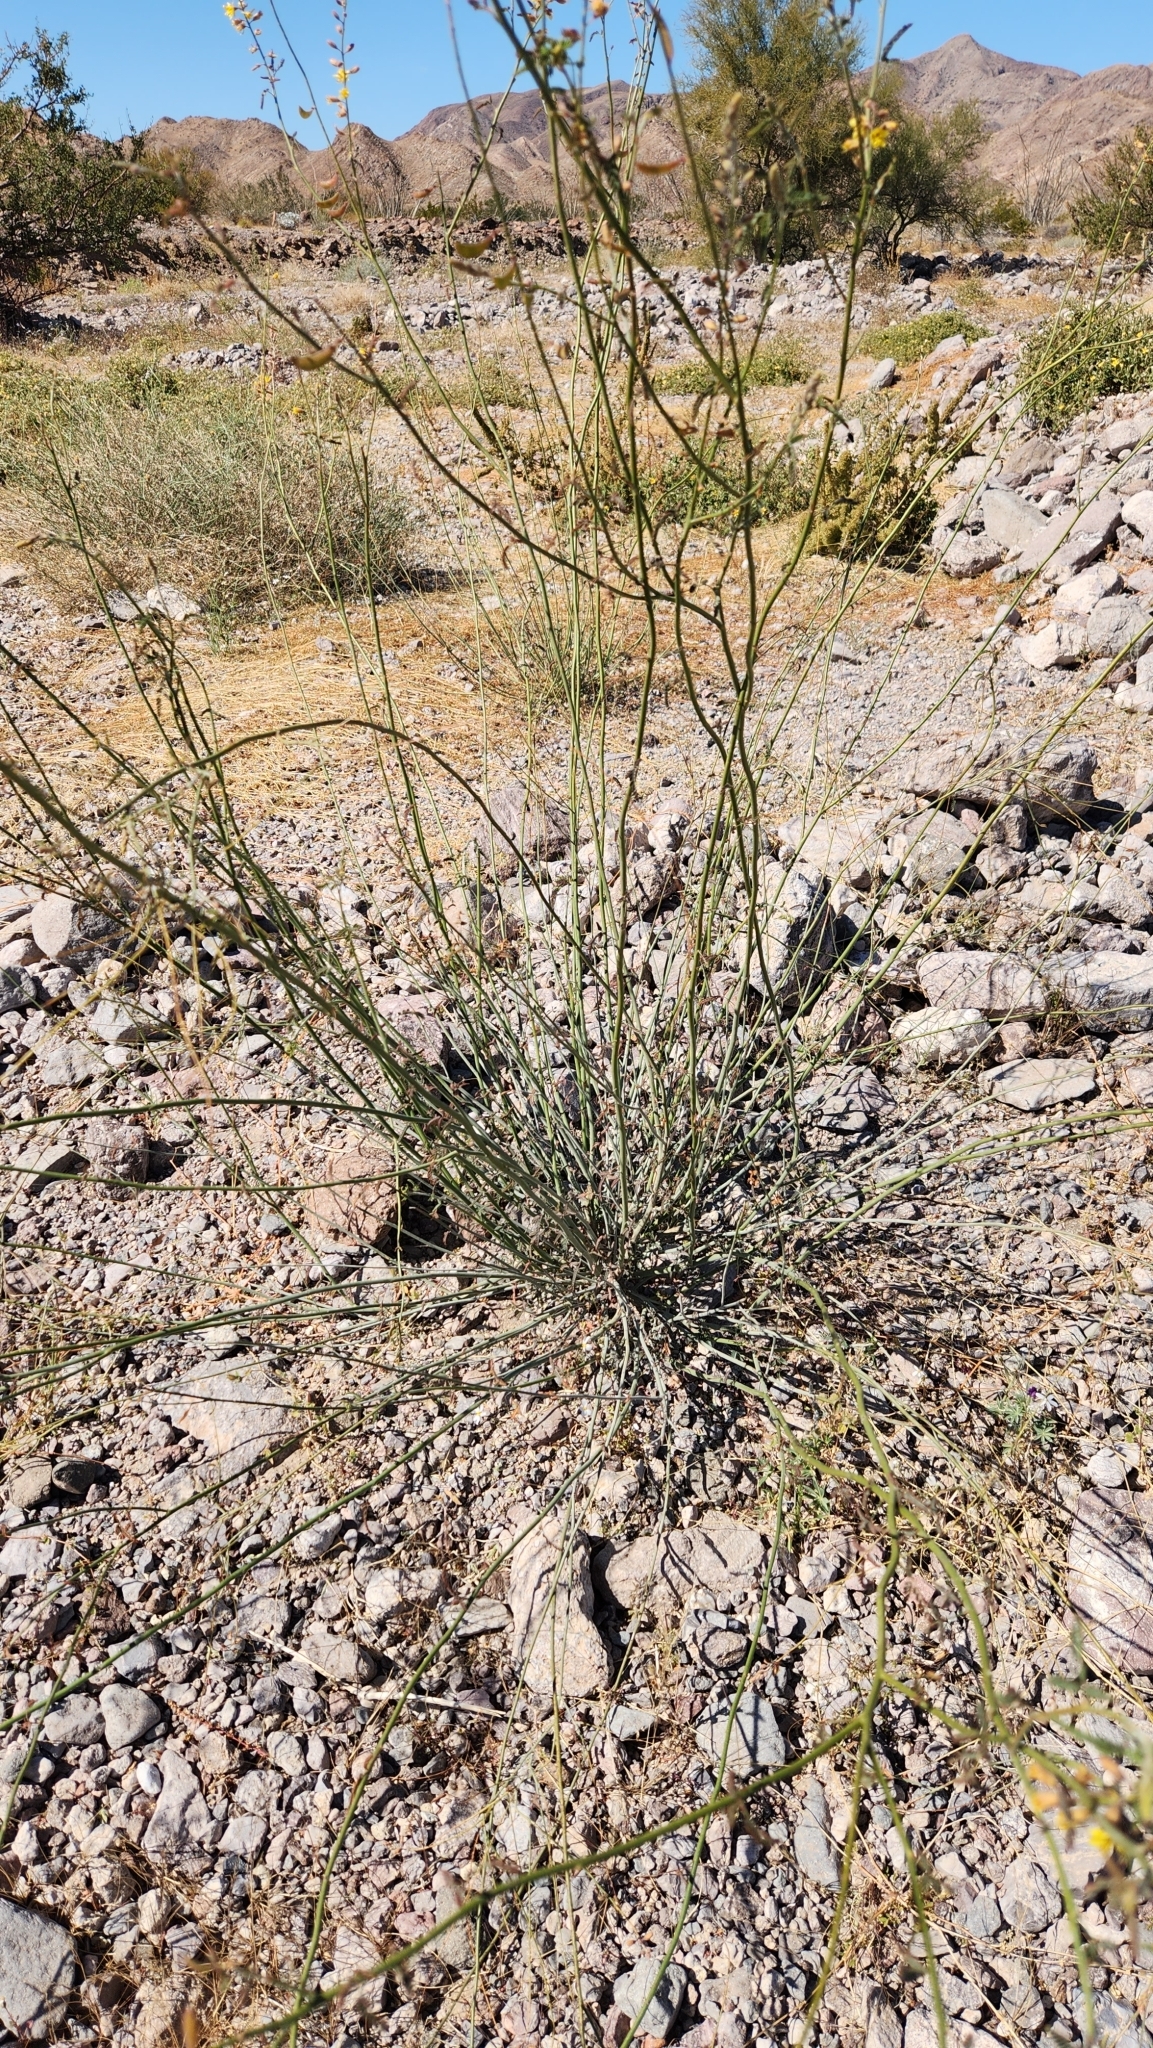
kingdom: Plantae
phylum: Tracheophyta
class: Magnoliopsida
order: Fabales
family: Fabaceae
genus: Hoffmannseggia
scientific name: Hoffmannseggia microphylla
